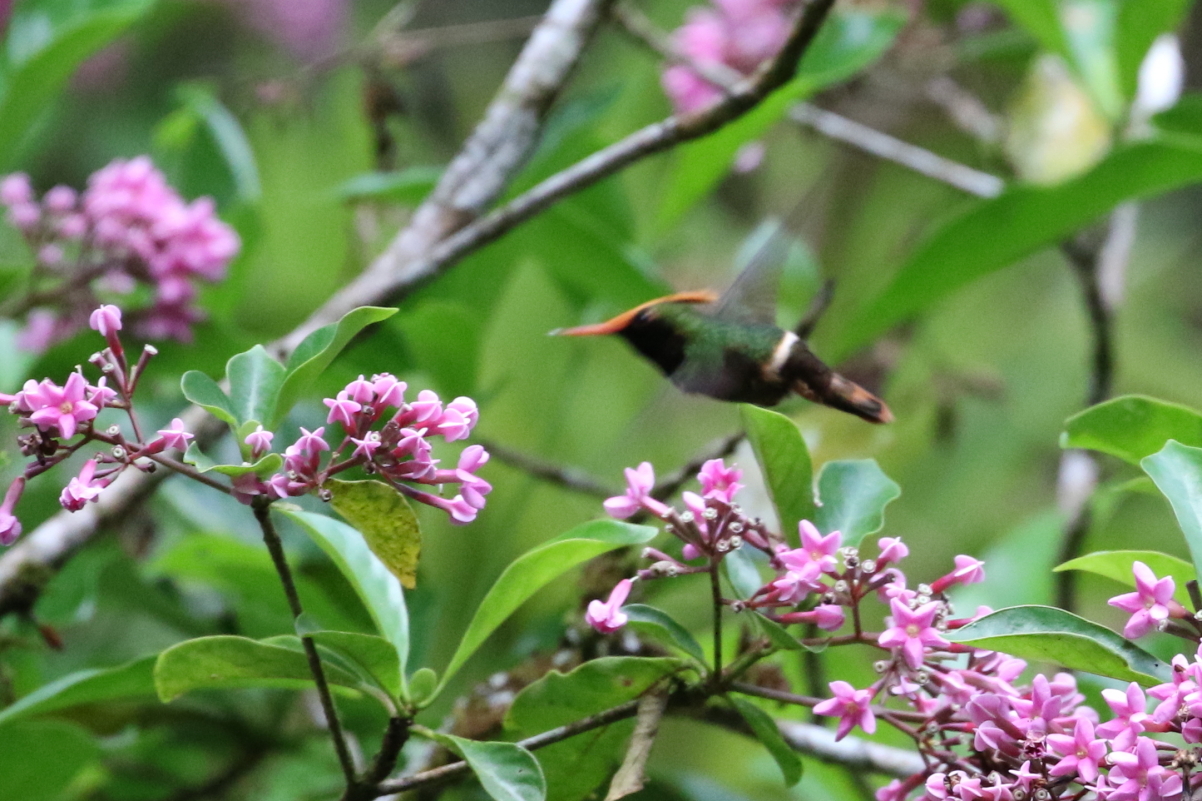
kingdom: Animalia
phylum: Chordata
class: Aves
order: Apodiformes
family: Trochilidae
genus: Lophornis
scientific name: Lophornis delattrei
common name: Rufous-crested coquette
